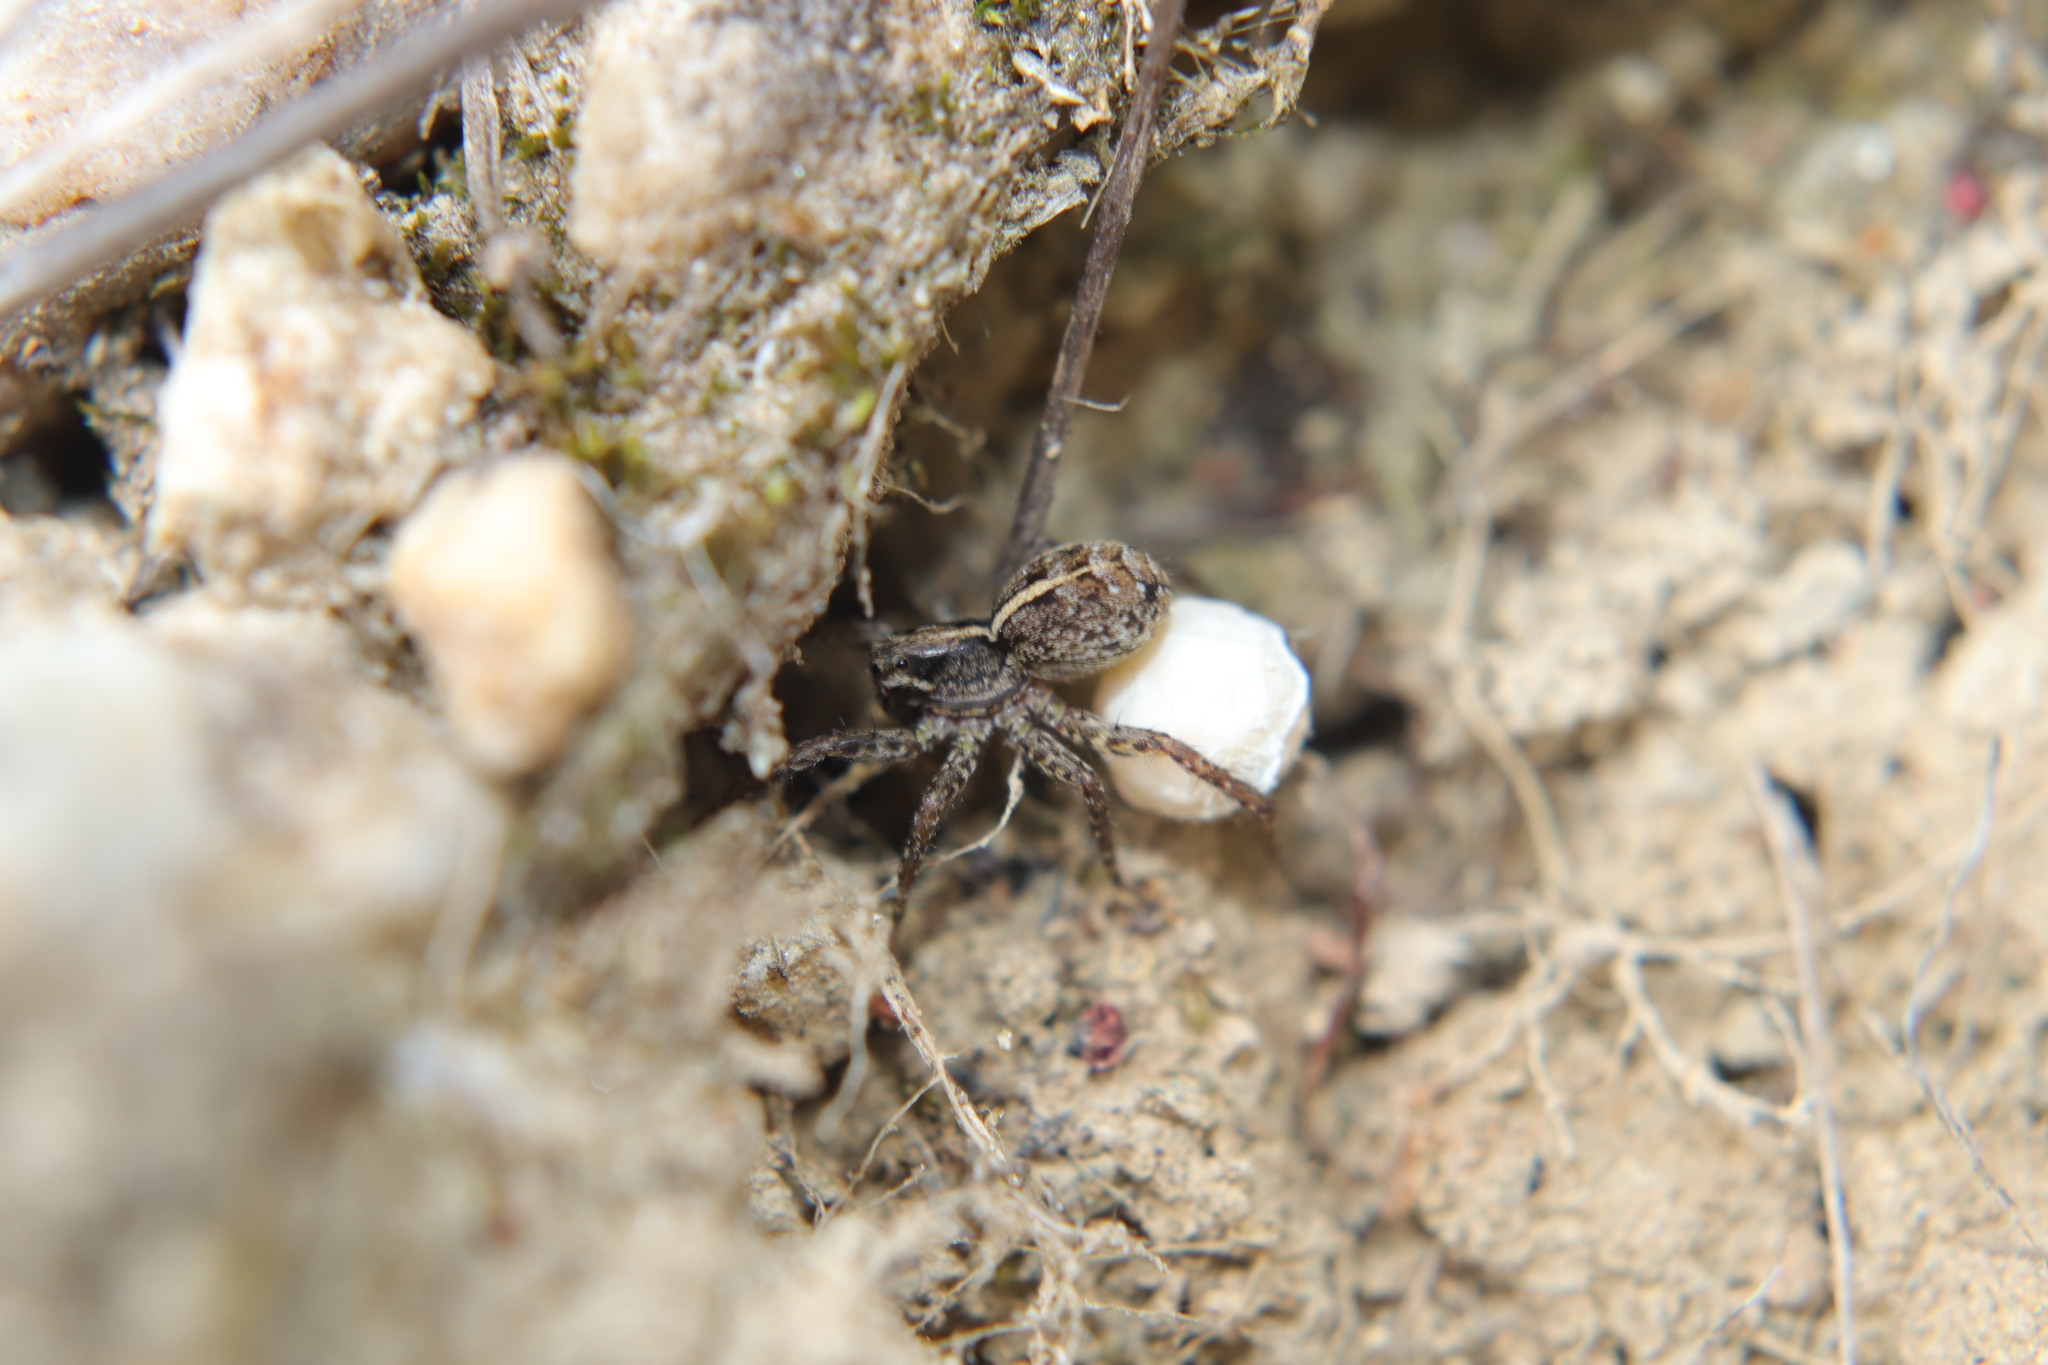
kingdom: Animalia
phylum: Arthropoda
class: Arachnida
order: Araneae
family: Lycosidae
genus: Anoteropsis
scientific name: Anoteropsis hilaris
